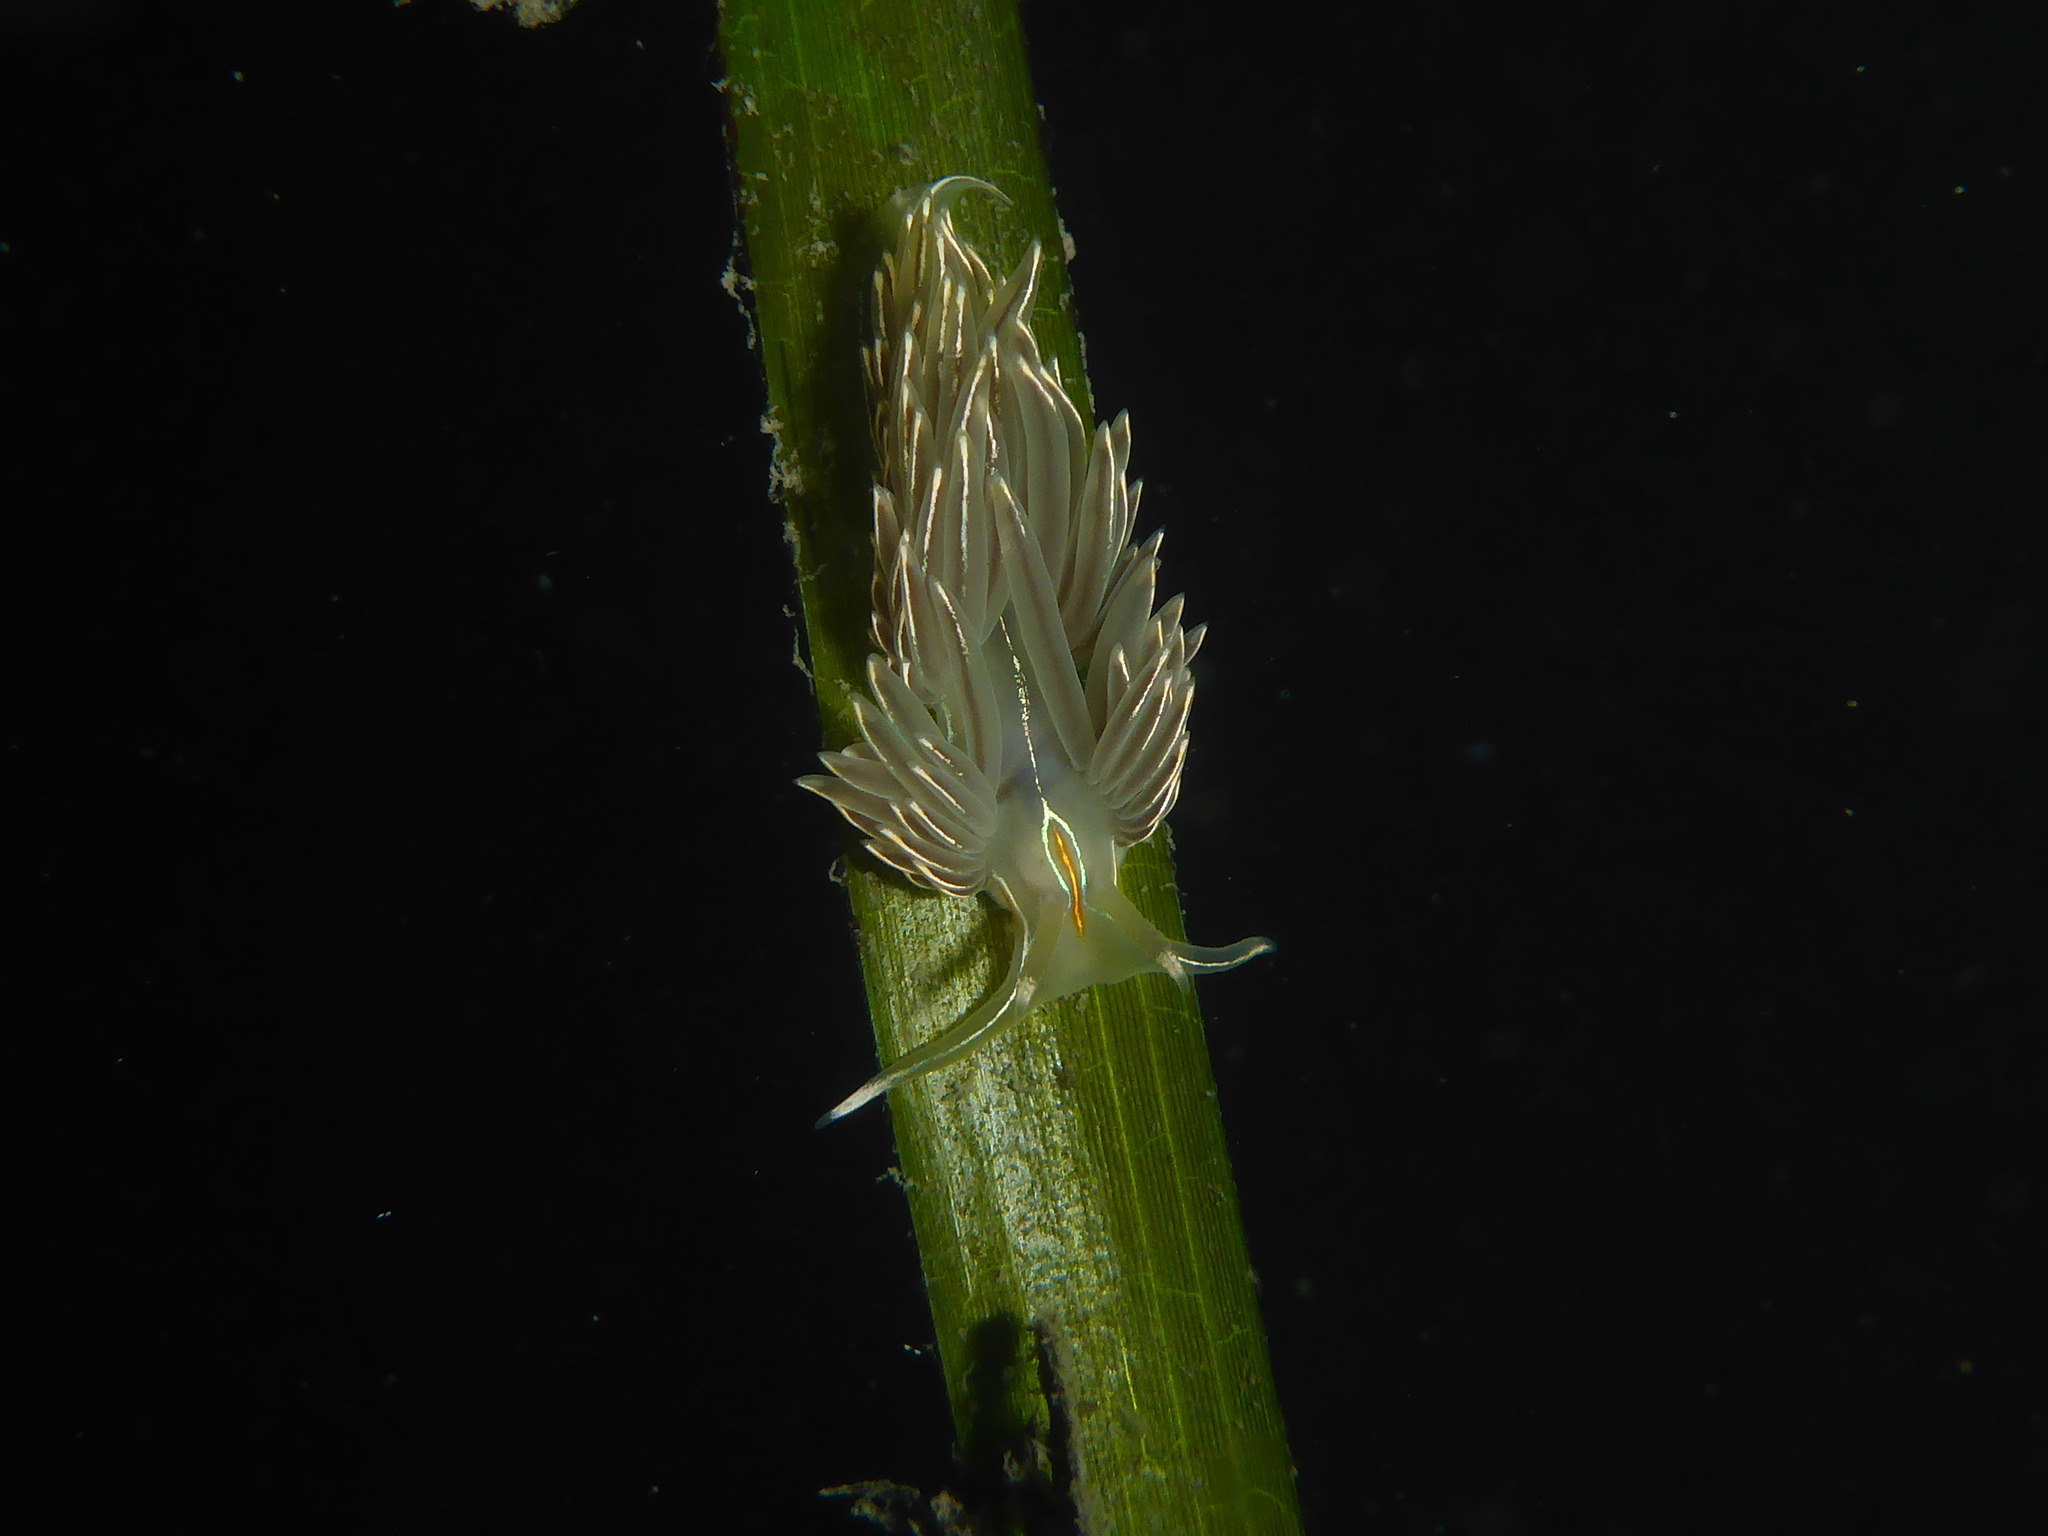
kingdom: Animalia
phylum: Mollusca
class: Gastropoda
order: Nudibranchia
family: Myrrhinidae
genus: Hermissenda
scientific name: Hermissenda crassicornis
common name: Hermissenda
